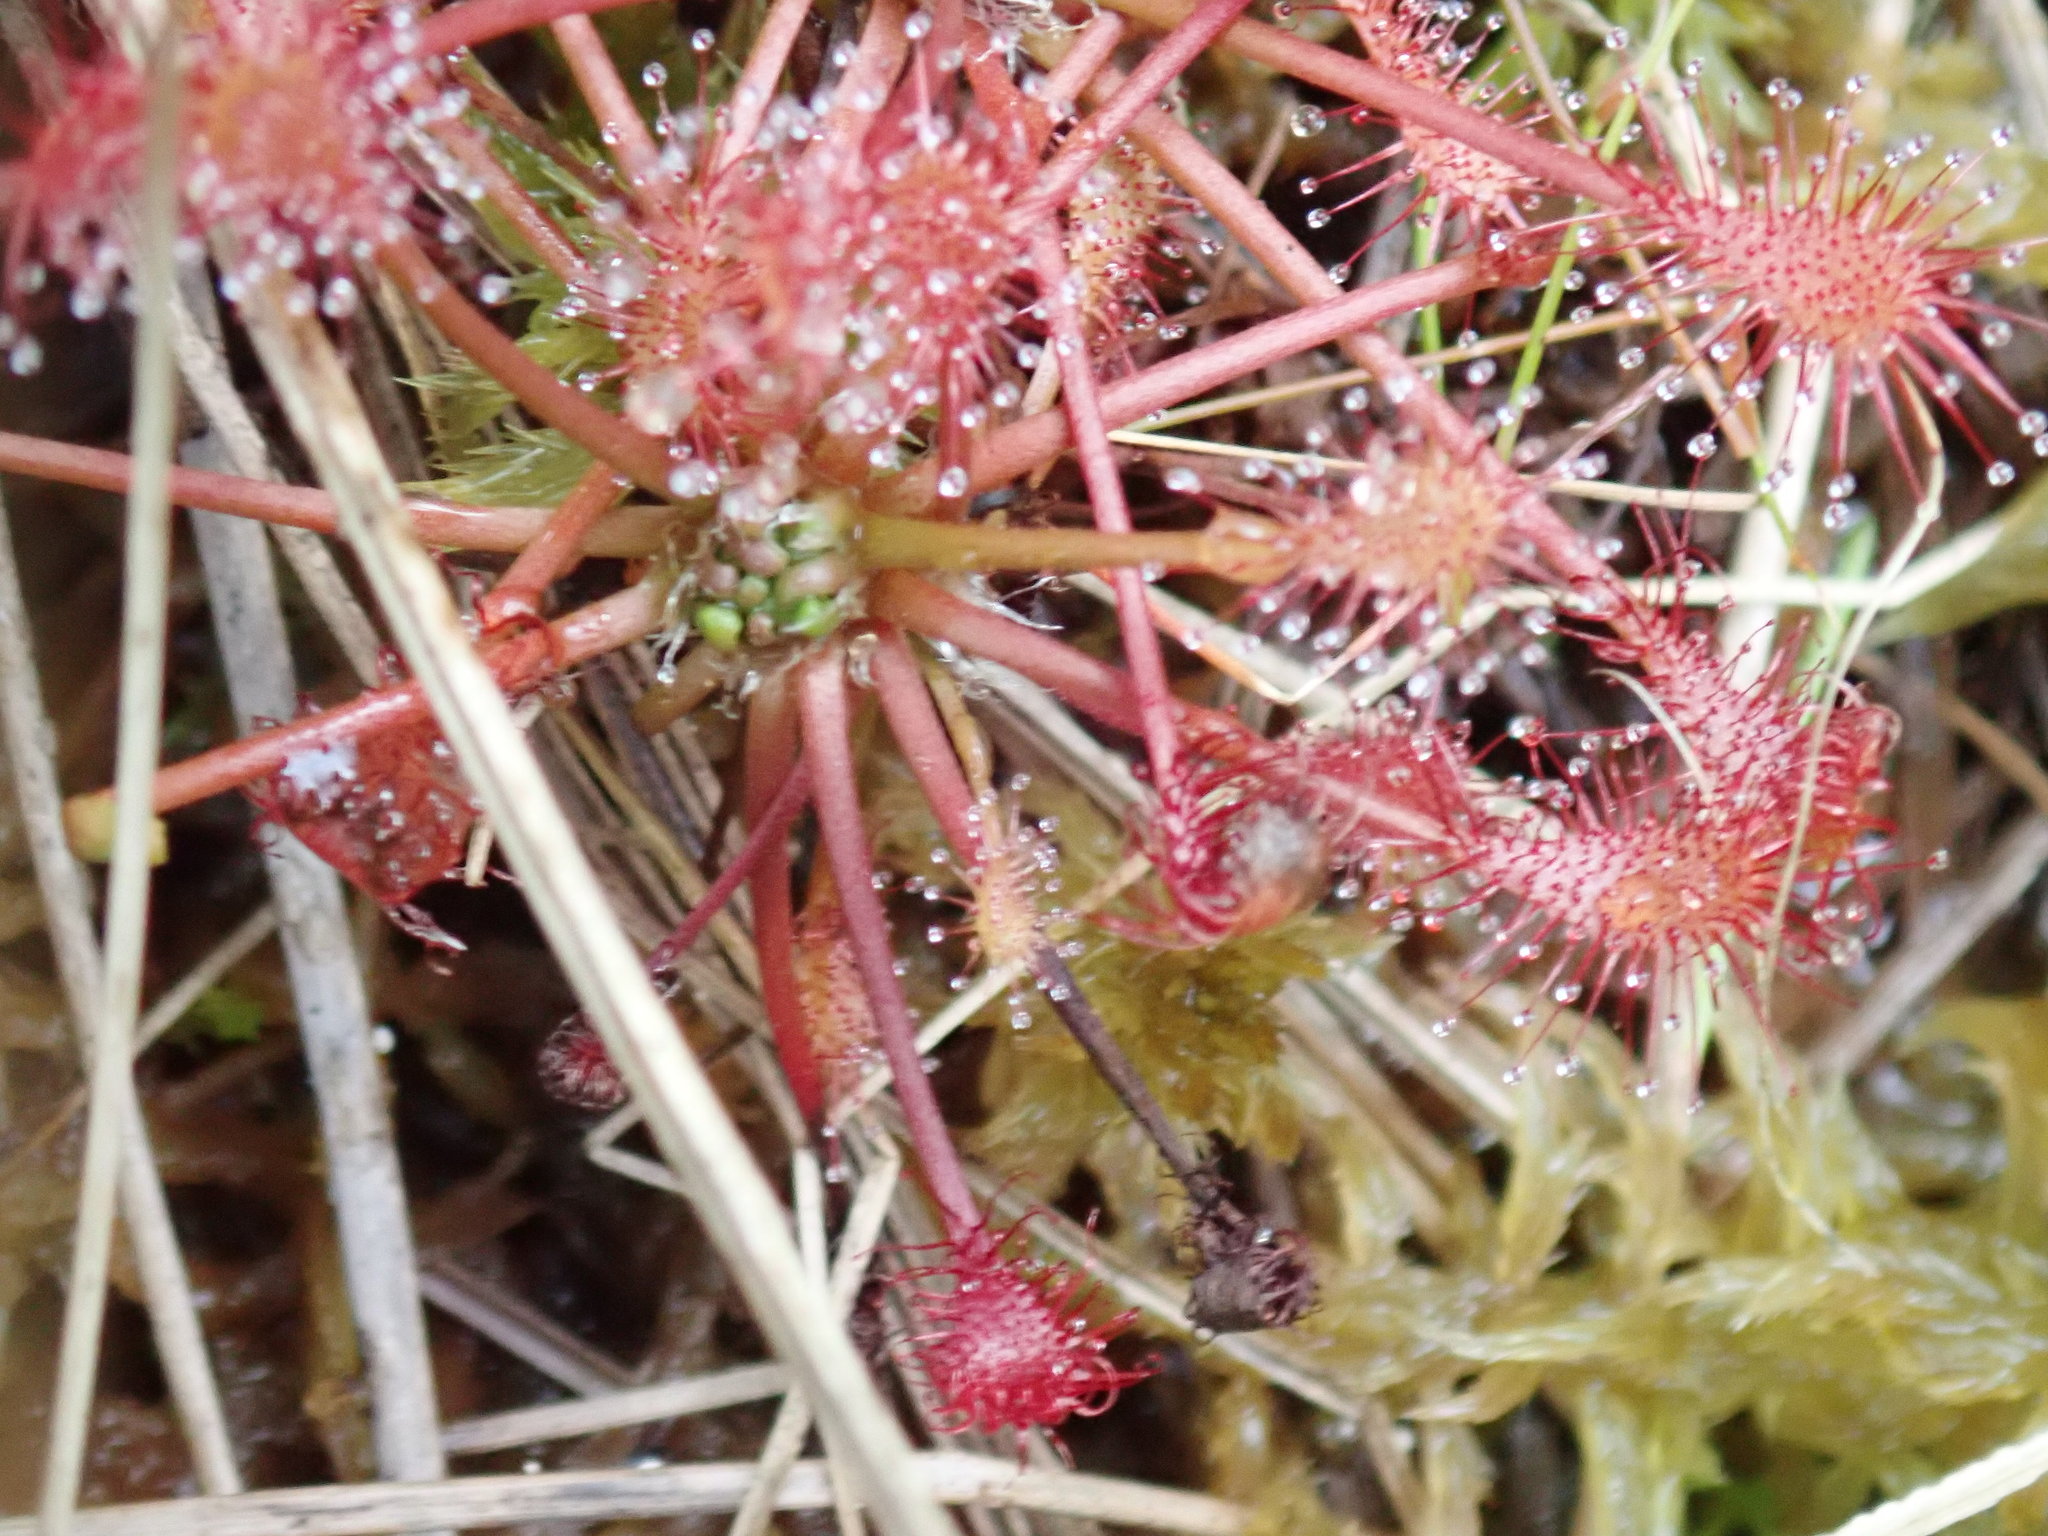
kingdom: Plantae
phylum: Tracheophyta
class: Magnoliopsida
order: Caryophyllales
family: Droseraceae
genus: Drosera
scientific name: Drosera intermedia
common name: Oblong-leaved sundew
